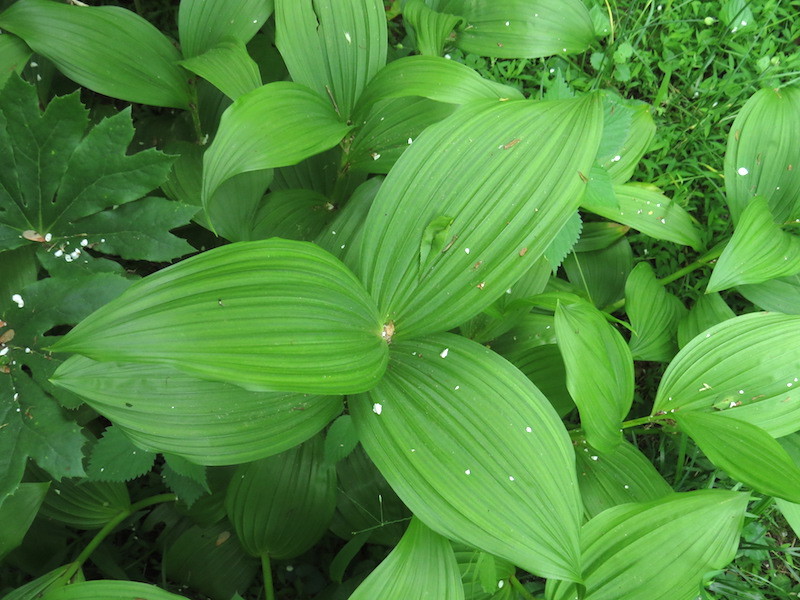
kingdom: Plantae
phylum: Tracheophyta
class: Liliopsida
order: Liliales
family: Melanthiaceae
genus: Veratrum
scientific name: Veratrum viride
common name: American false hellebore
